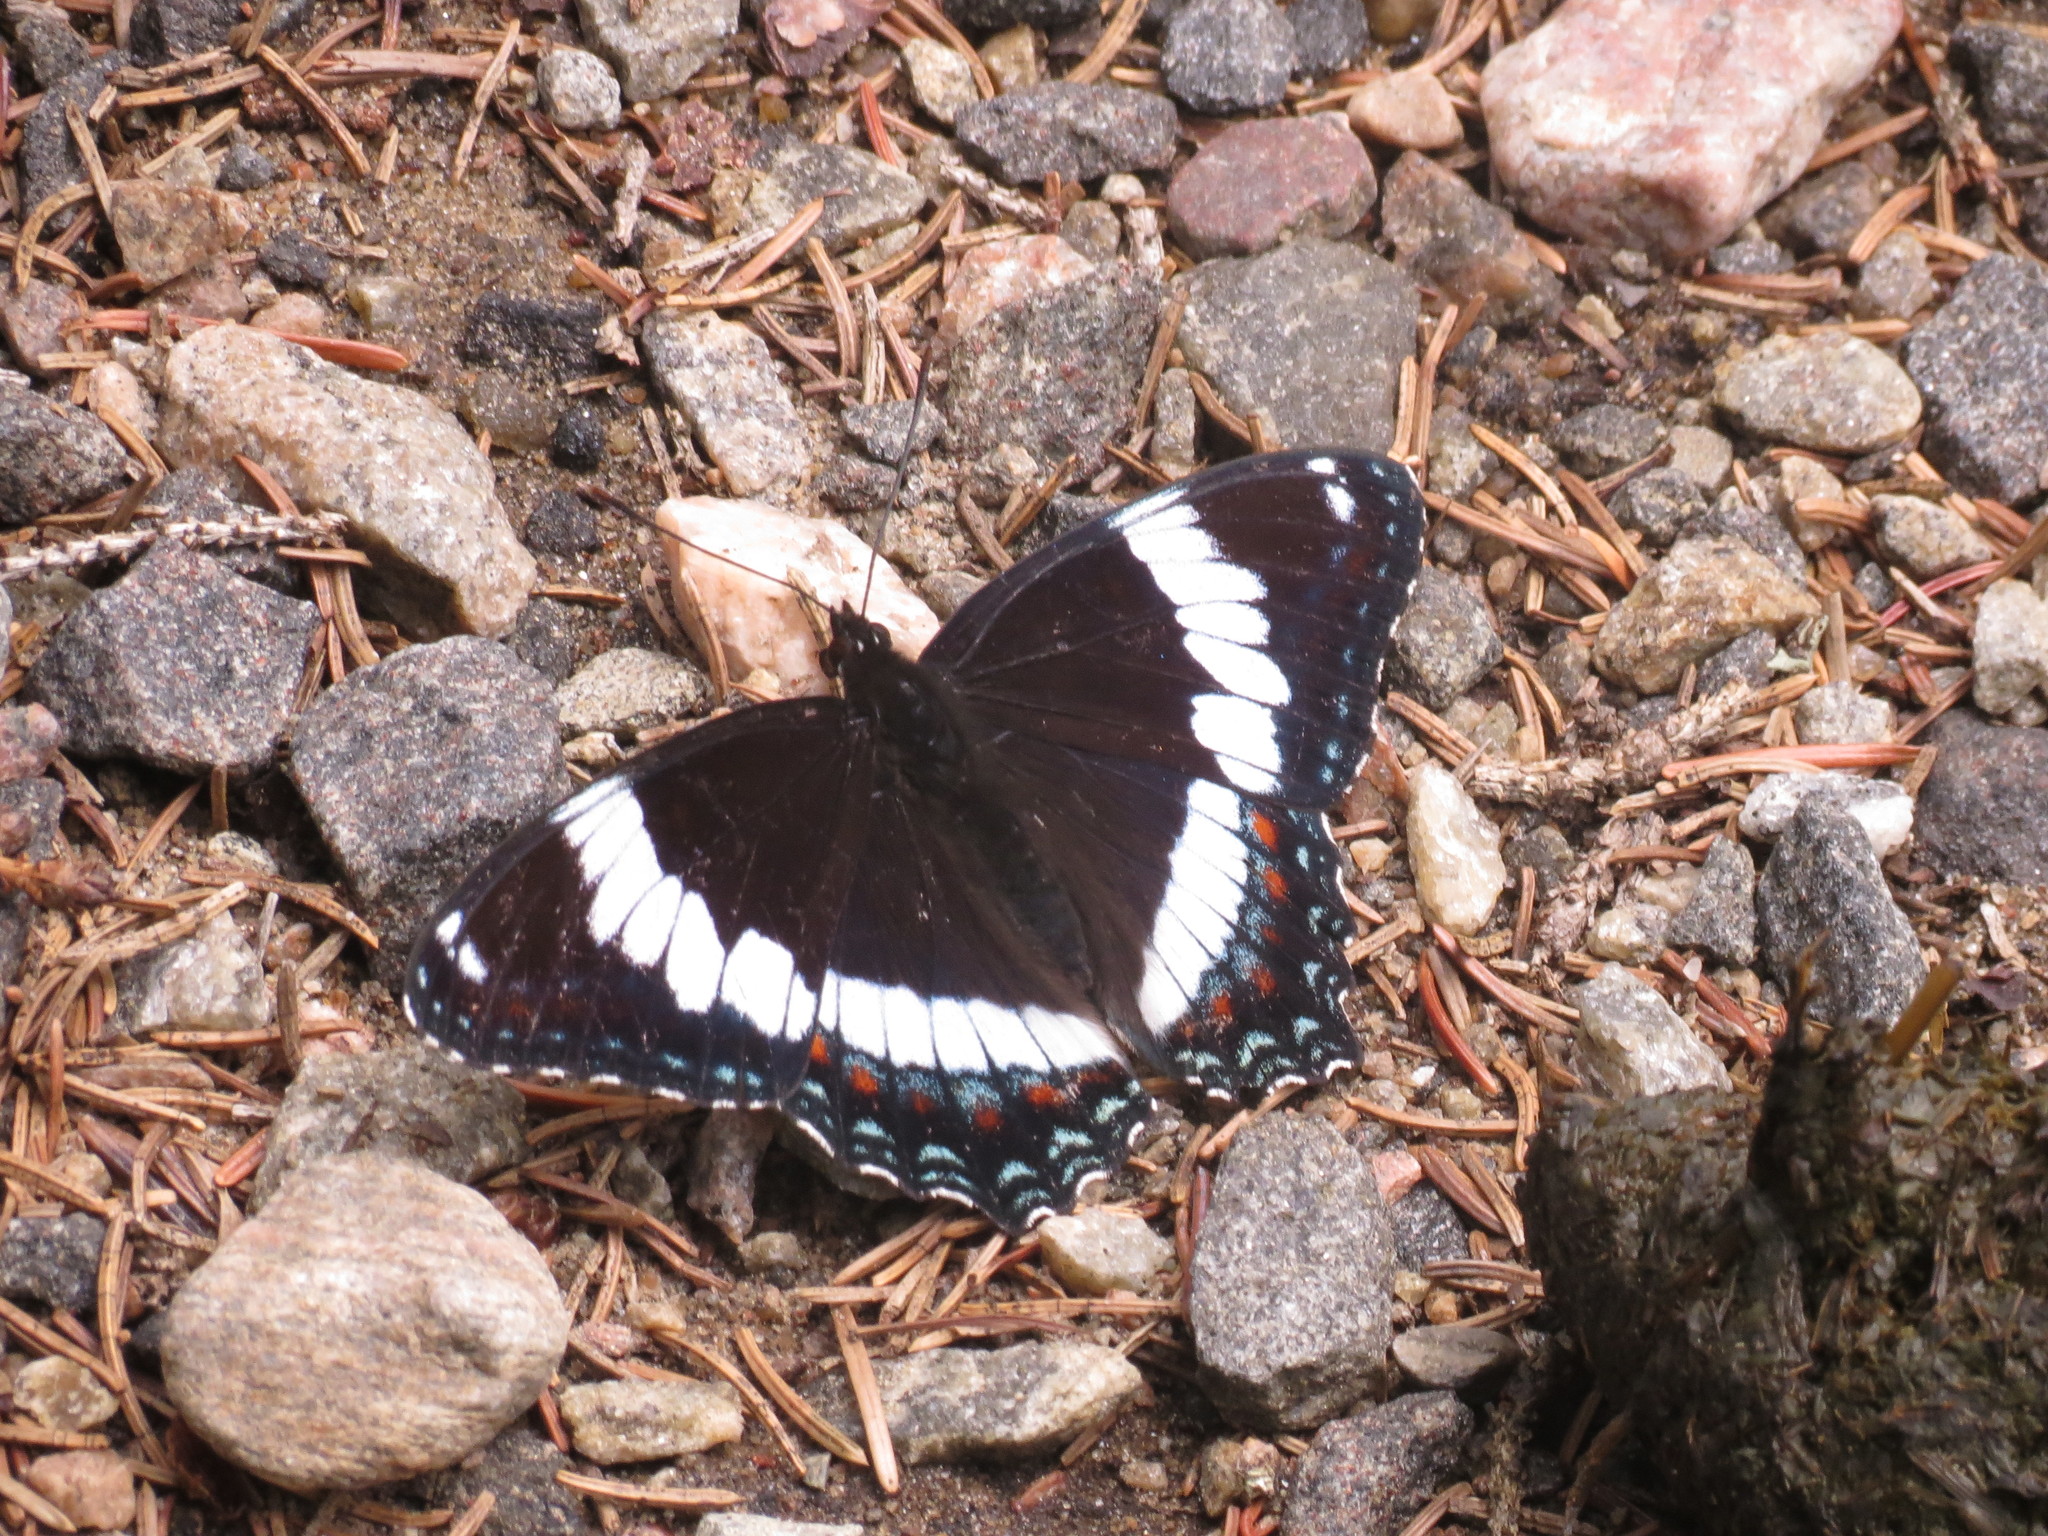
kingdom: Animalia
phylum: Arthropoda
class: Insecta
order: Lepidoptera
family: Nymphalidae
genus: Limenitis
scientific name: Limenitis arthemis
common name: Red-spotted admiral
